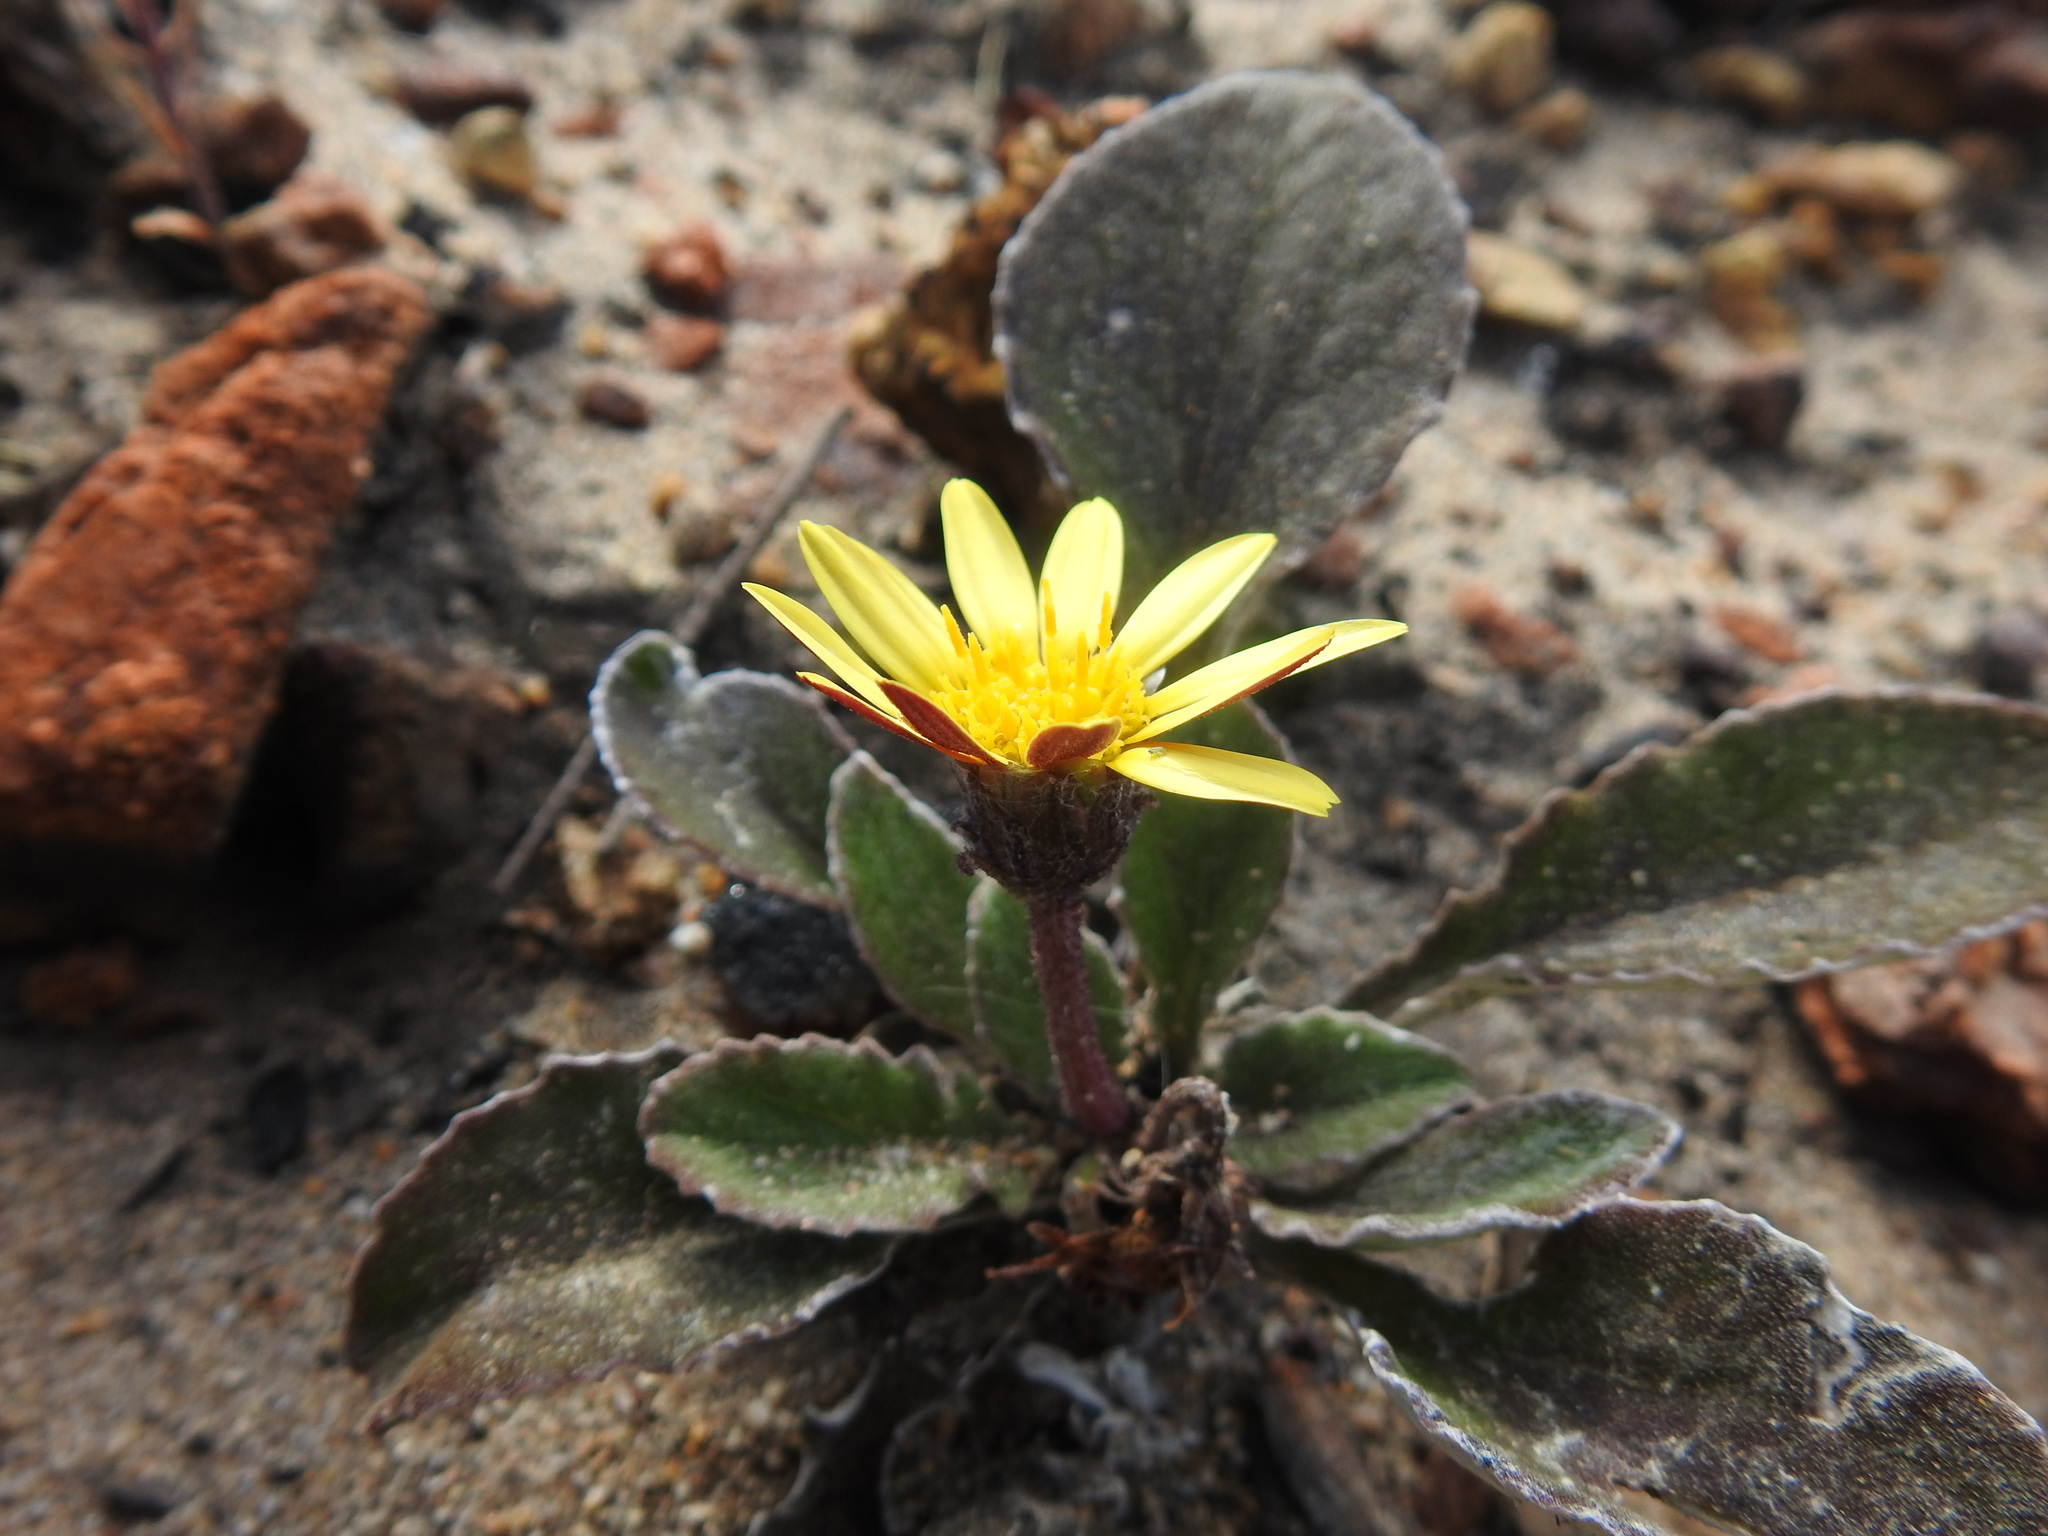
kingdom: Plantae
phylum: Tracheophyta
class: Magnoliopsida
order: Asterales
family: Asteraceae
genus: Haplocarpha
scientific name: Haplocarpha lanata
